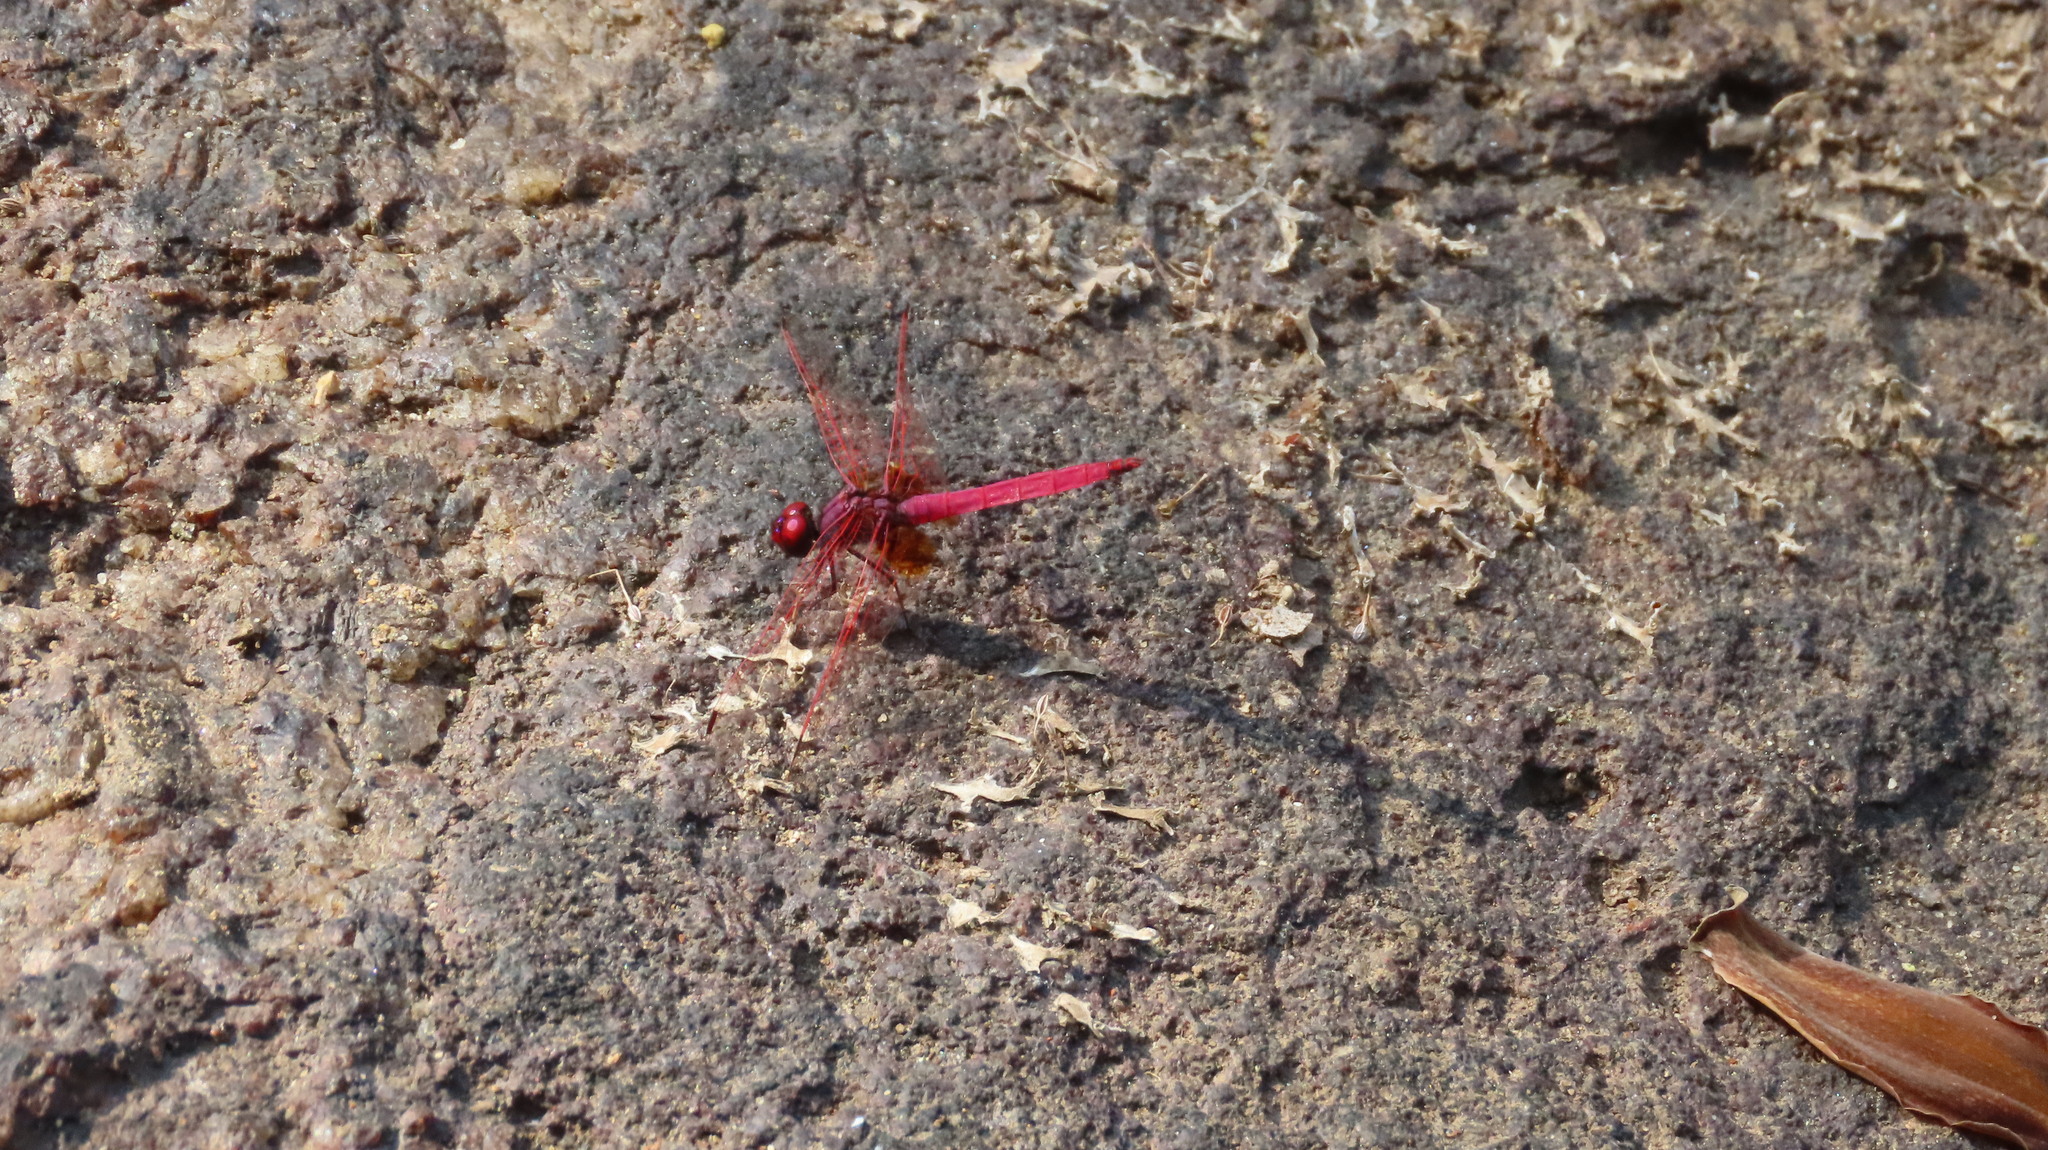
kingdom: Animalia
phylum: Arthropoda
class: Insecta
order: Odonata
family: Libellulidae
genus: Trithemis
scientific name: Trithemis aurora
